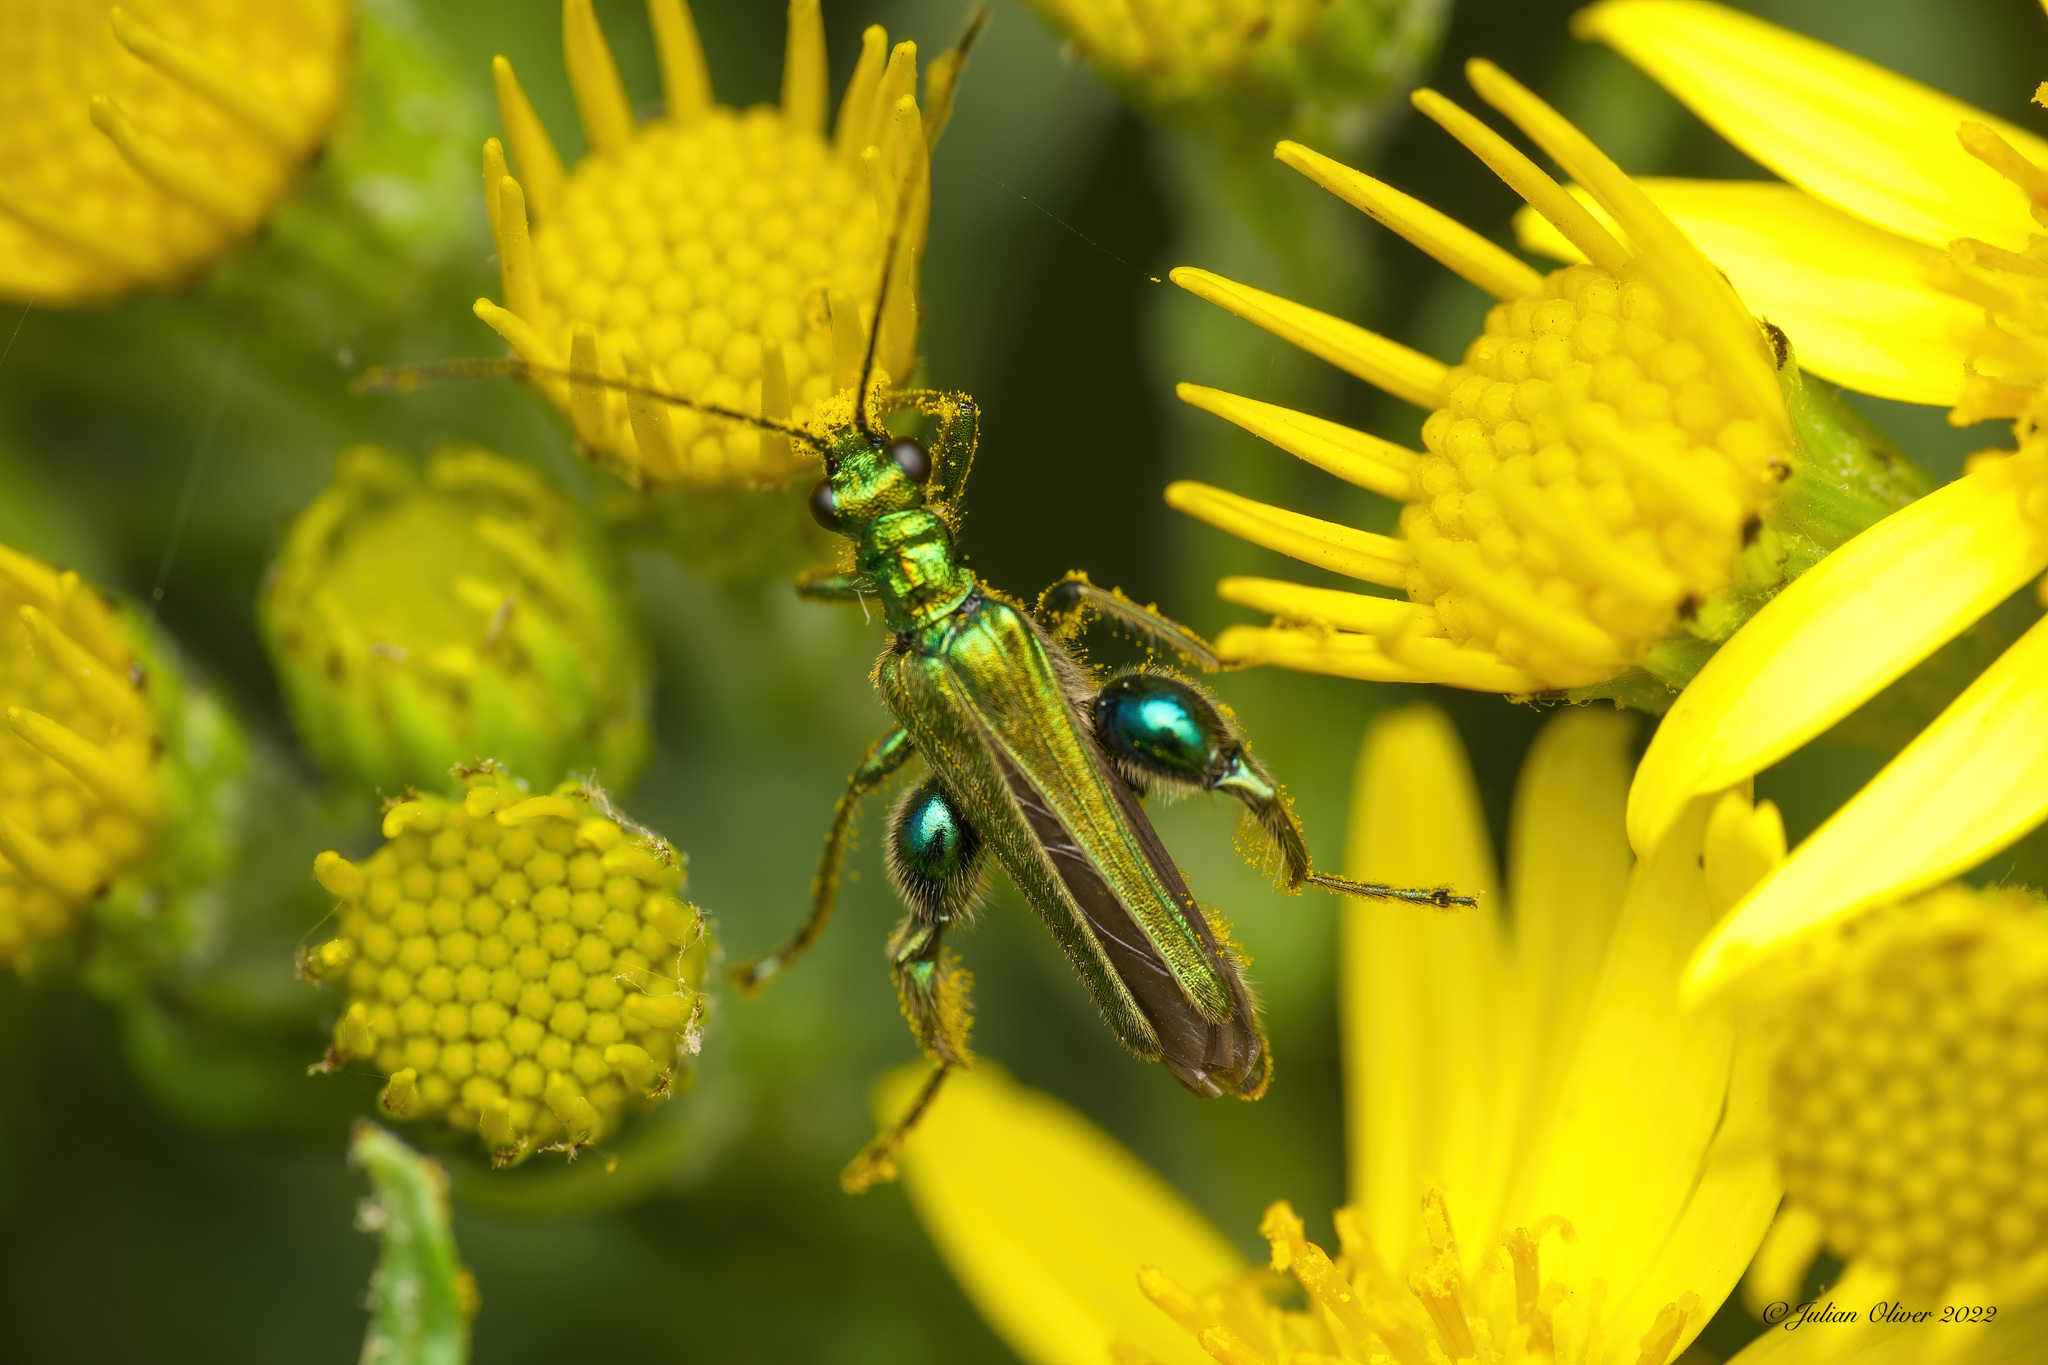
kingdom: Animalia
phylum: Arthropoda
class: Insecta
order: Coleoptera
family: Oedemeridae
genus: Oedemera
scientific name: Oedemera nobilis
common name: Swollen-thighed beetle
